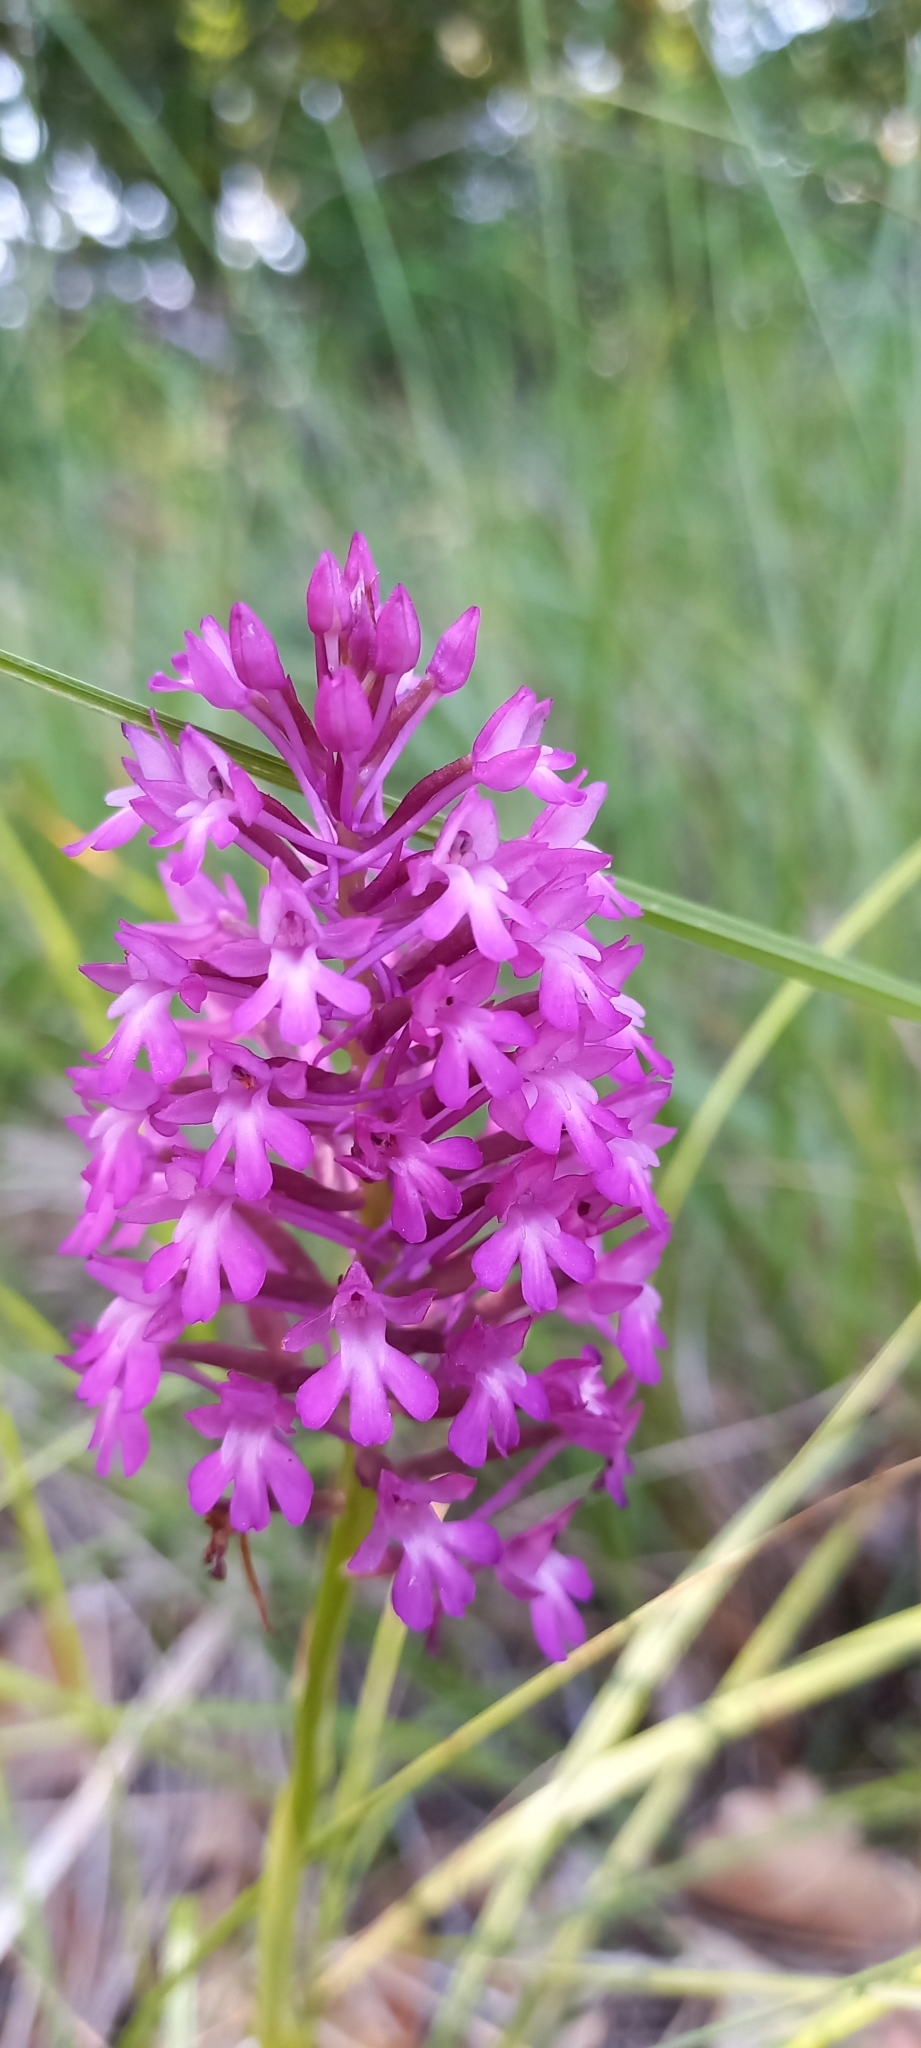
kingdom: Plantae
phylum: Tracheophyta
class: Liliopsida
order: Asparagales
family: Orchidaceae
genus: Anacamptis
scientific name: Anacamptis pyramidalis
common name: Pyramidal orchid
